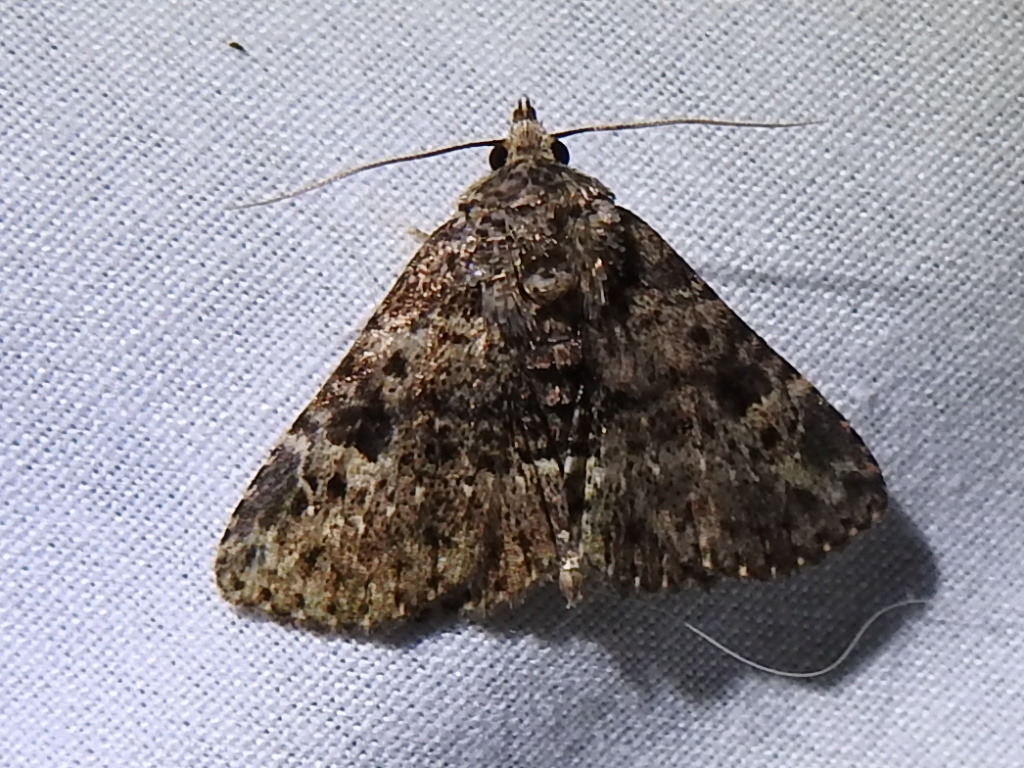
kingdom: Animalia
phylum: Arthropoda
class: Insecta
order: Lepidoptera
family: Erebidae
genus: Metalectra
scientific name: Metalectra discalis
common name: Common fungus moth
